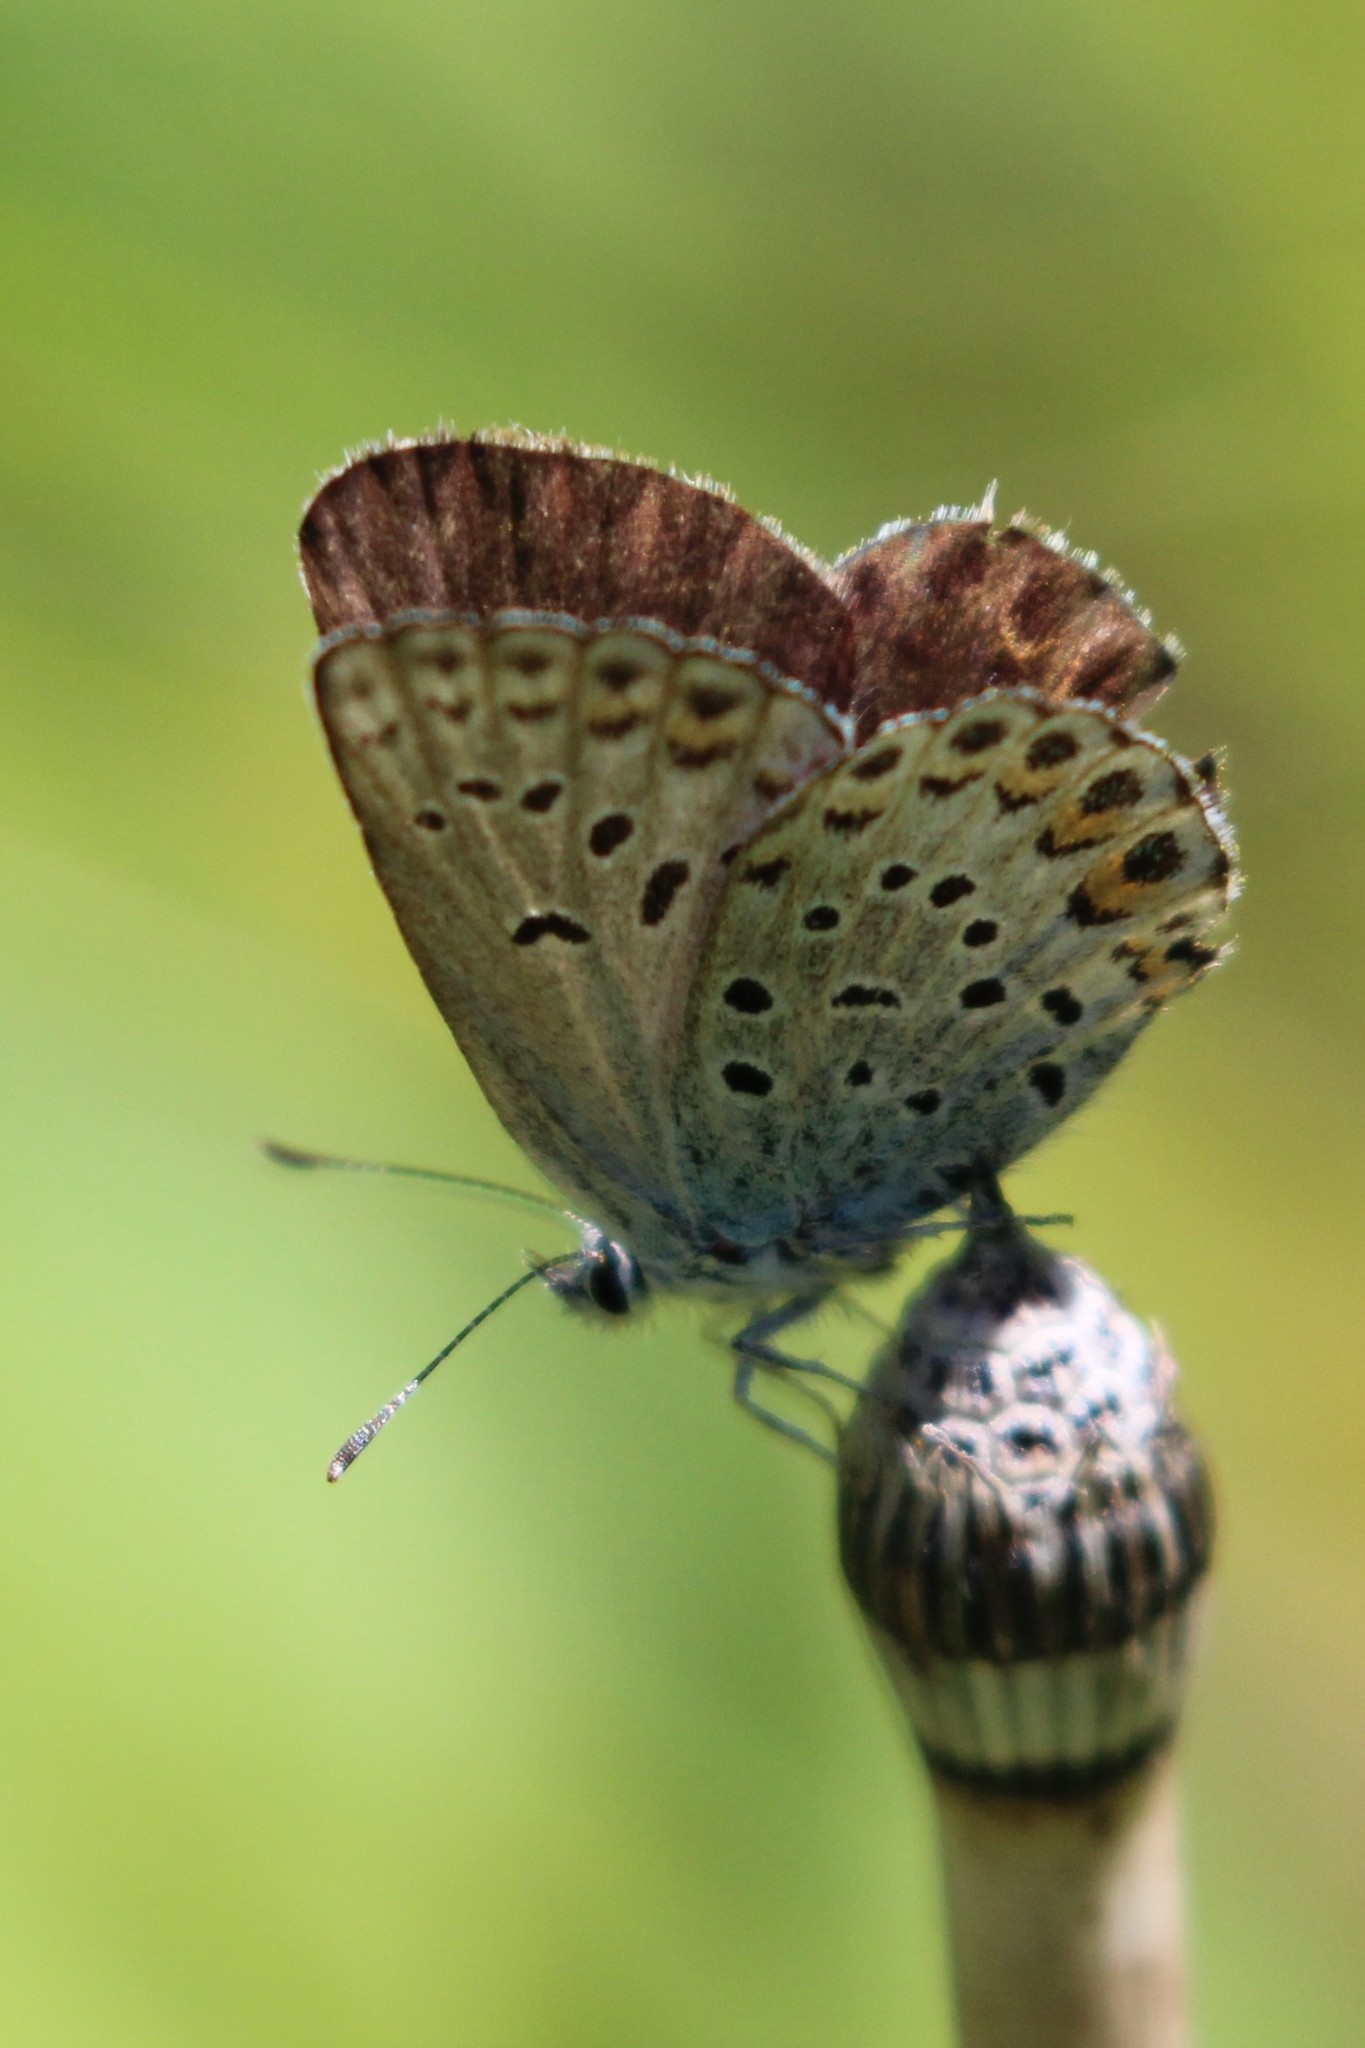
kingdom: Animalia
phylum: Arthropoda
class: Insecta
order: Lepidoptera
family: Lycaenidae
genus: Lycaeides
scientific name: Lycaeides idas
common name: Northern blue
